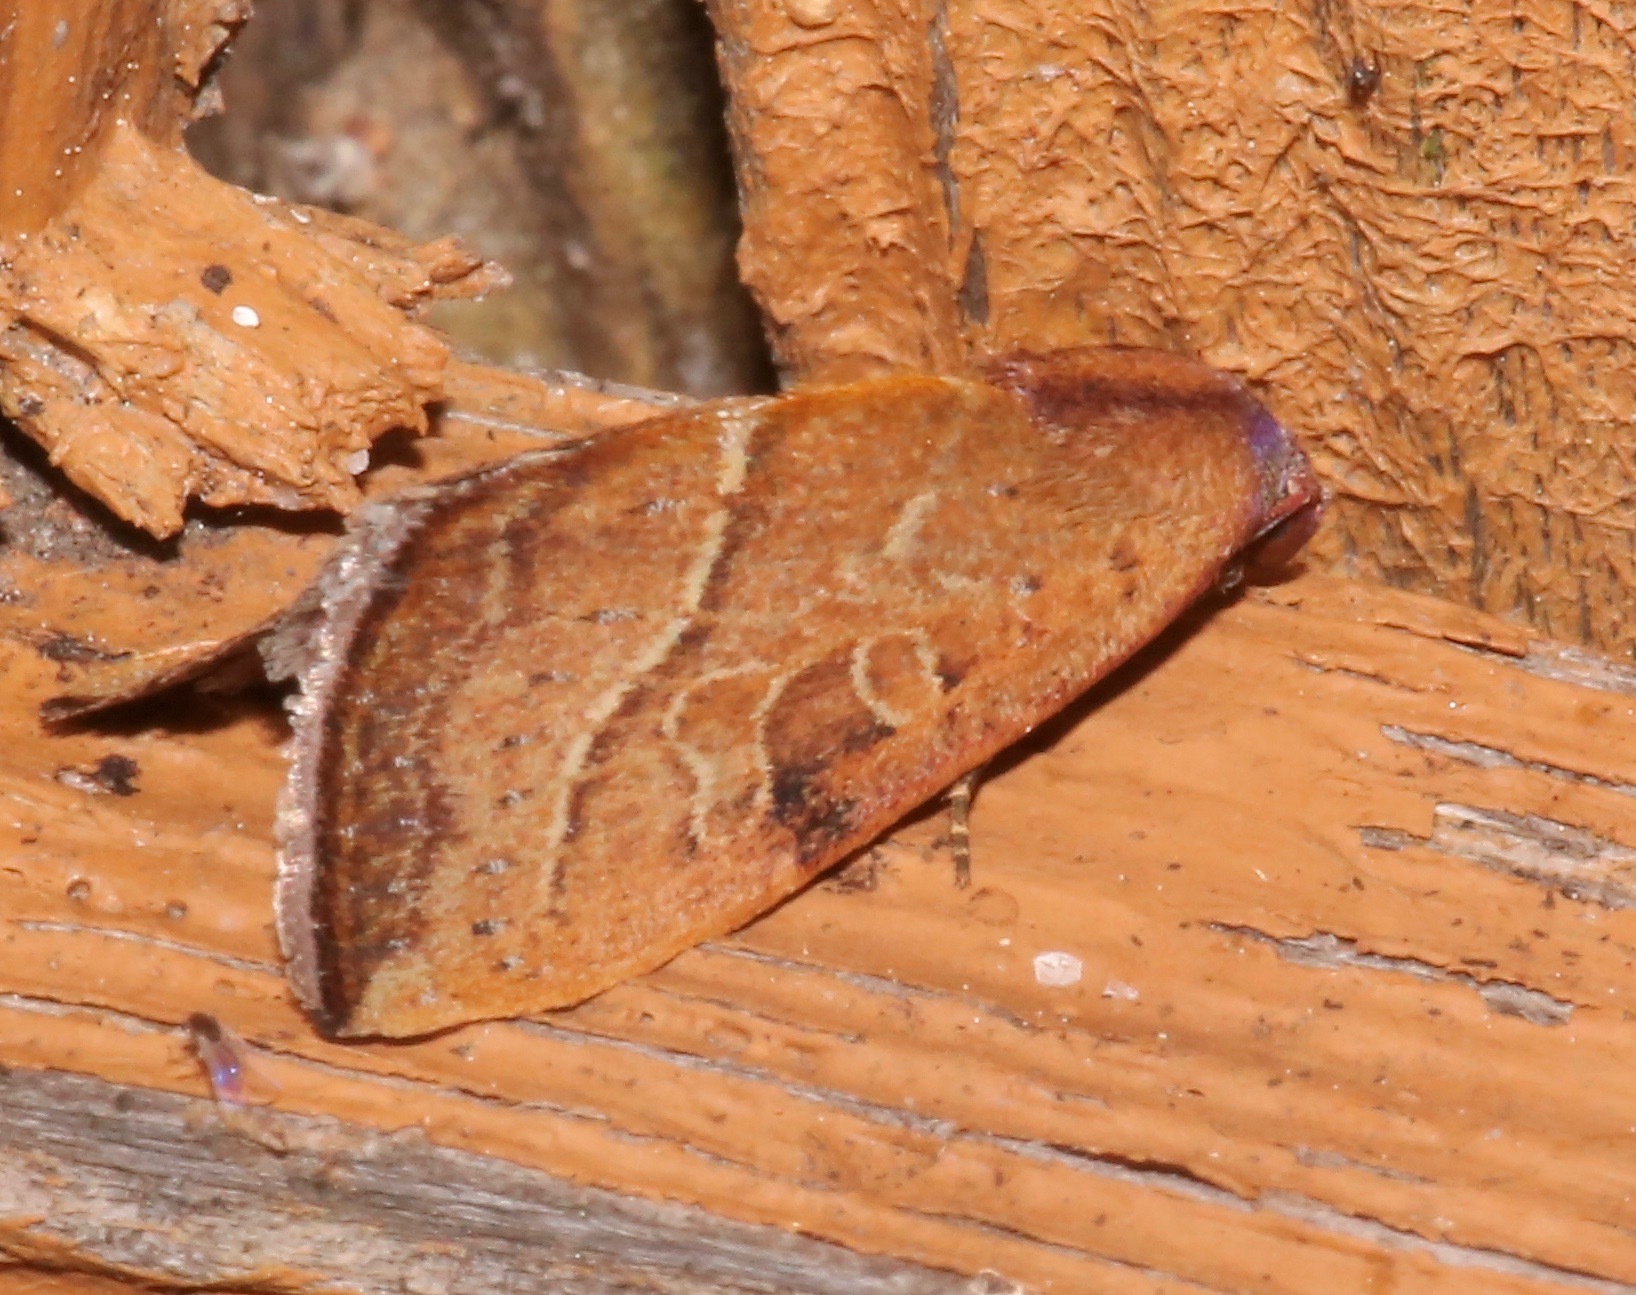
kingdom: Animalia
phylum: Arthropoda
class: Insecta
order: Lepidoptera
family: Noctuidae
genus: Galgula
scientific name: Galgula partita
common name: Wedgeling
